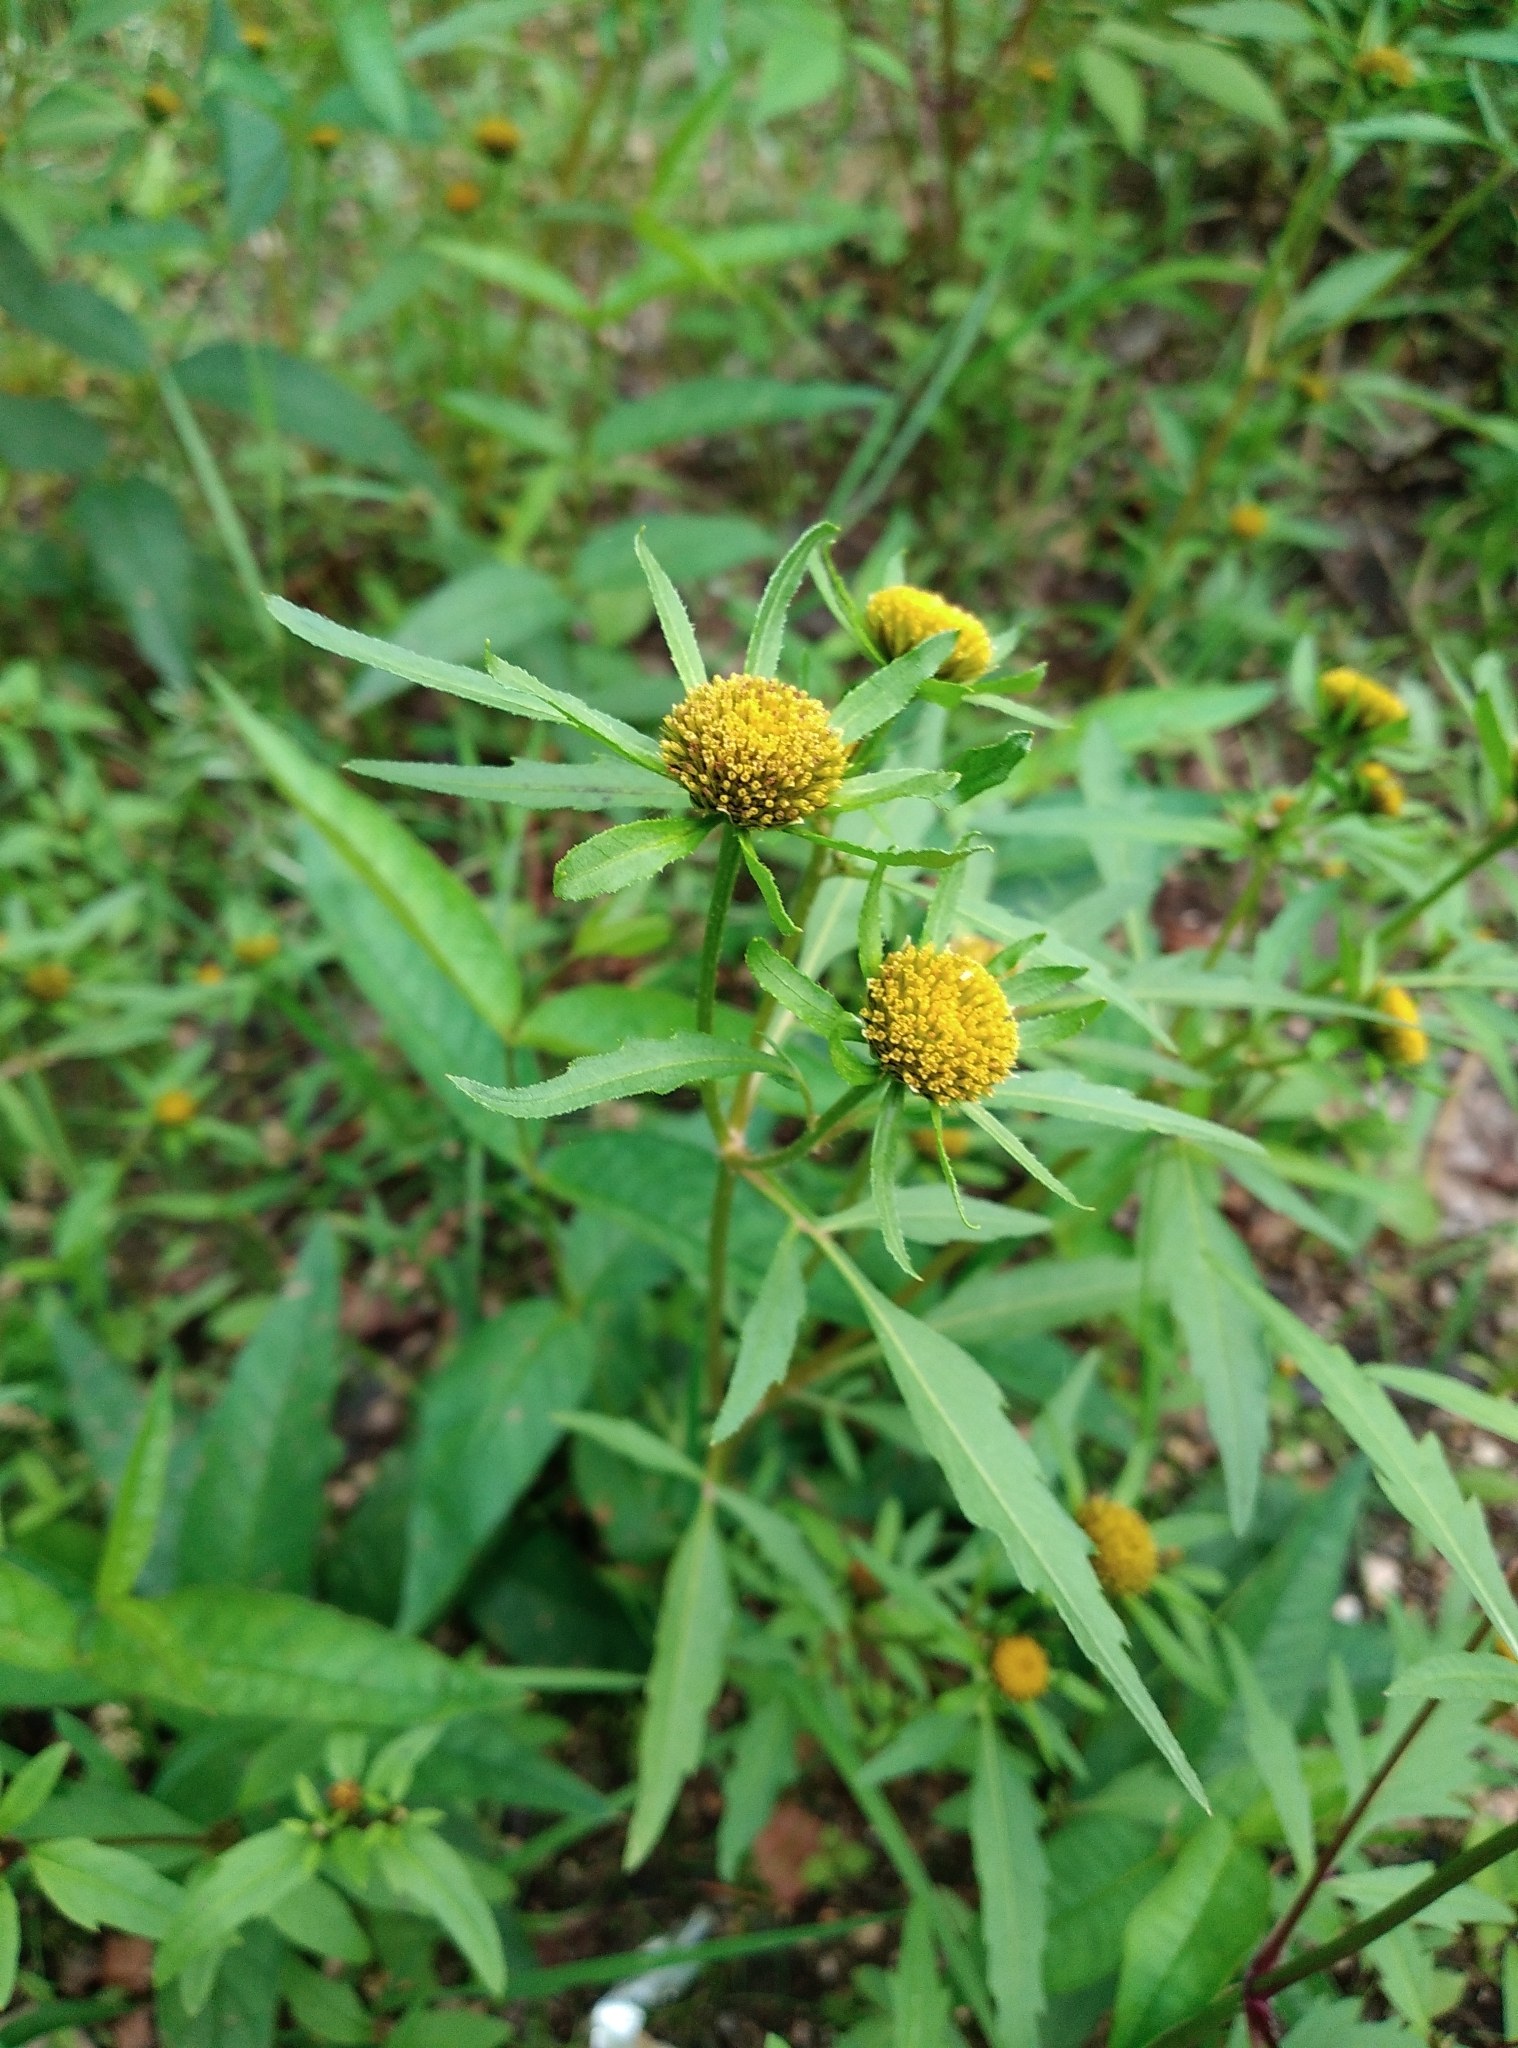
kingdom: Plantae
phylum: Tracheophyta
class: Magnoliopsida
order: Asterales
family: Asteraceae
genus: Bidens
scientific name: Bidens radiata
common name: Radiating bur-marigold
